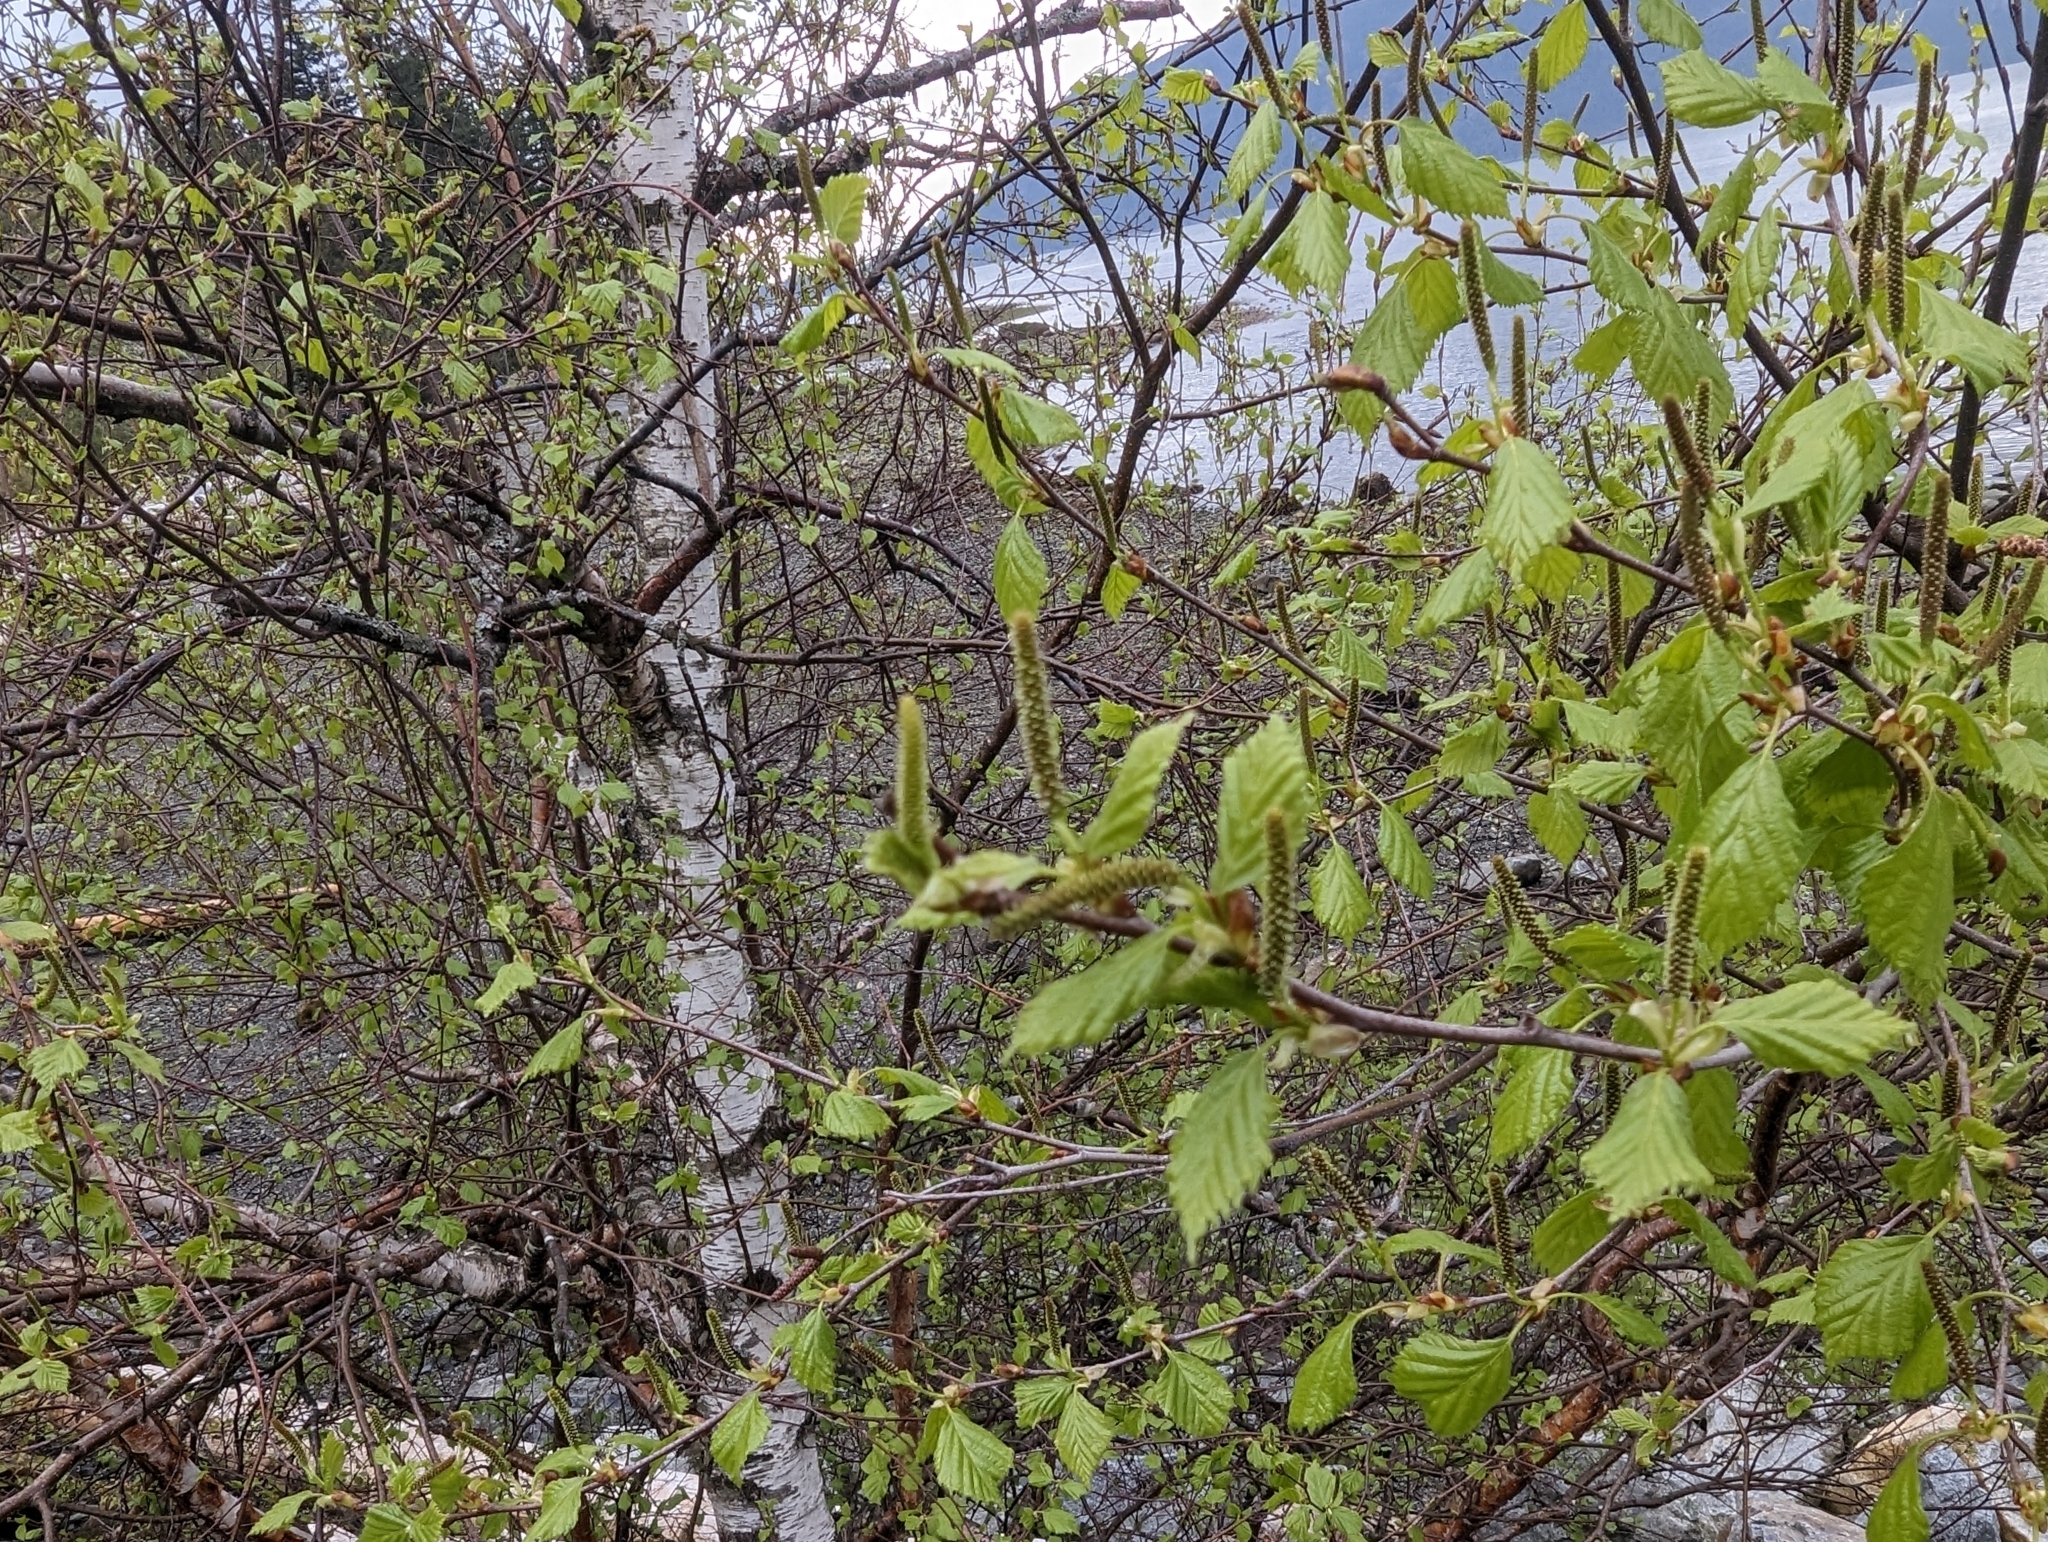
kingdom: Plantae
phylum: Tracheophyta
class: Magnoliopsida
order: Fagales
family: Betulaceae
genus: Betula
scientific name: Betula papyrifera
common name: Paper birch
